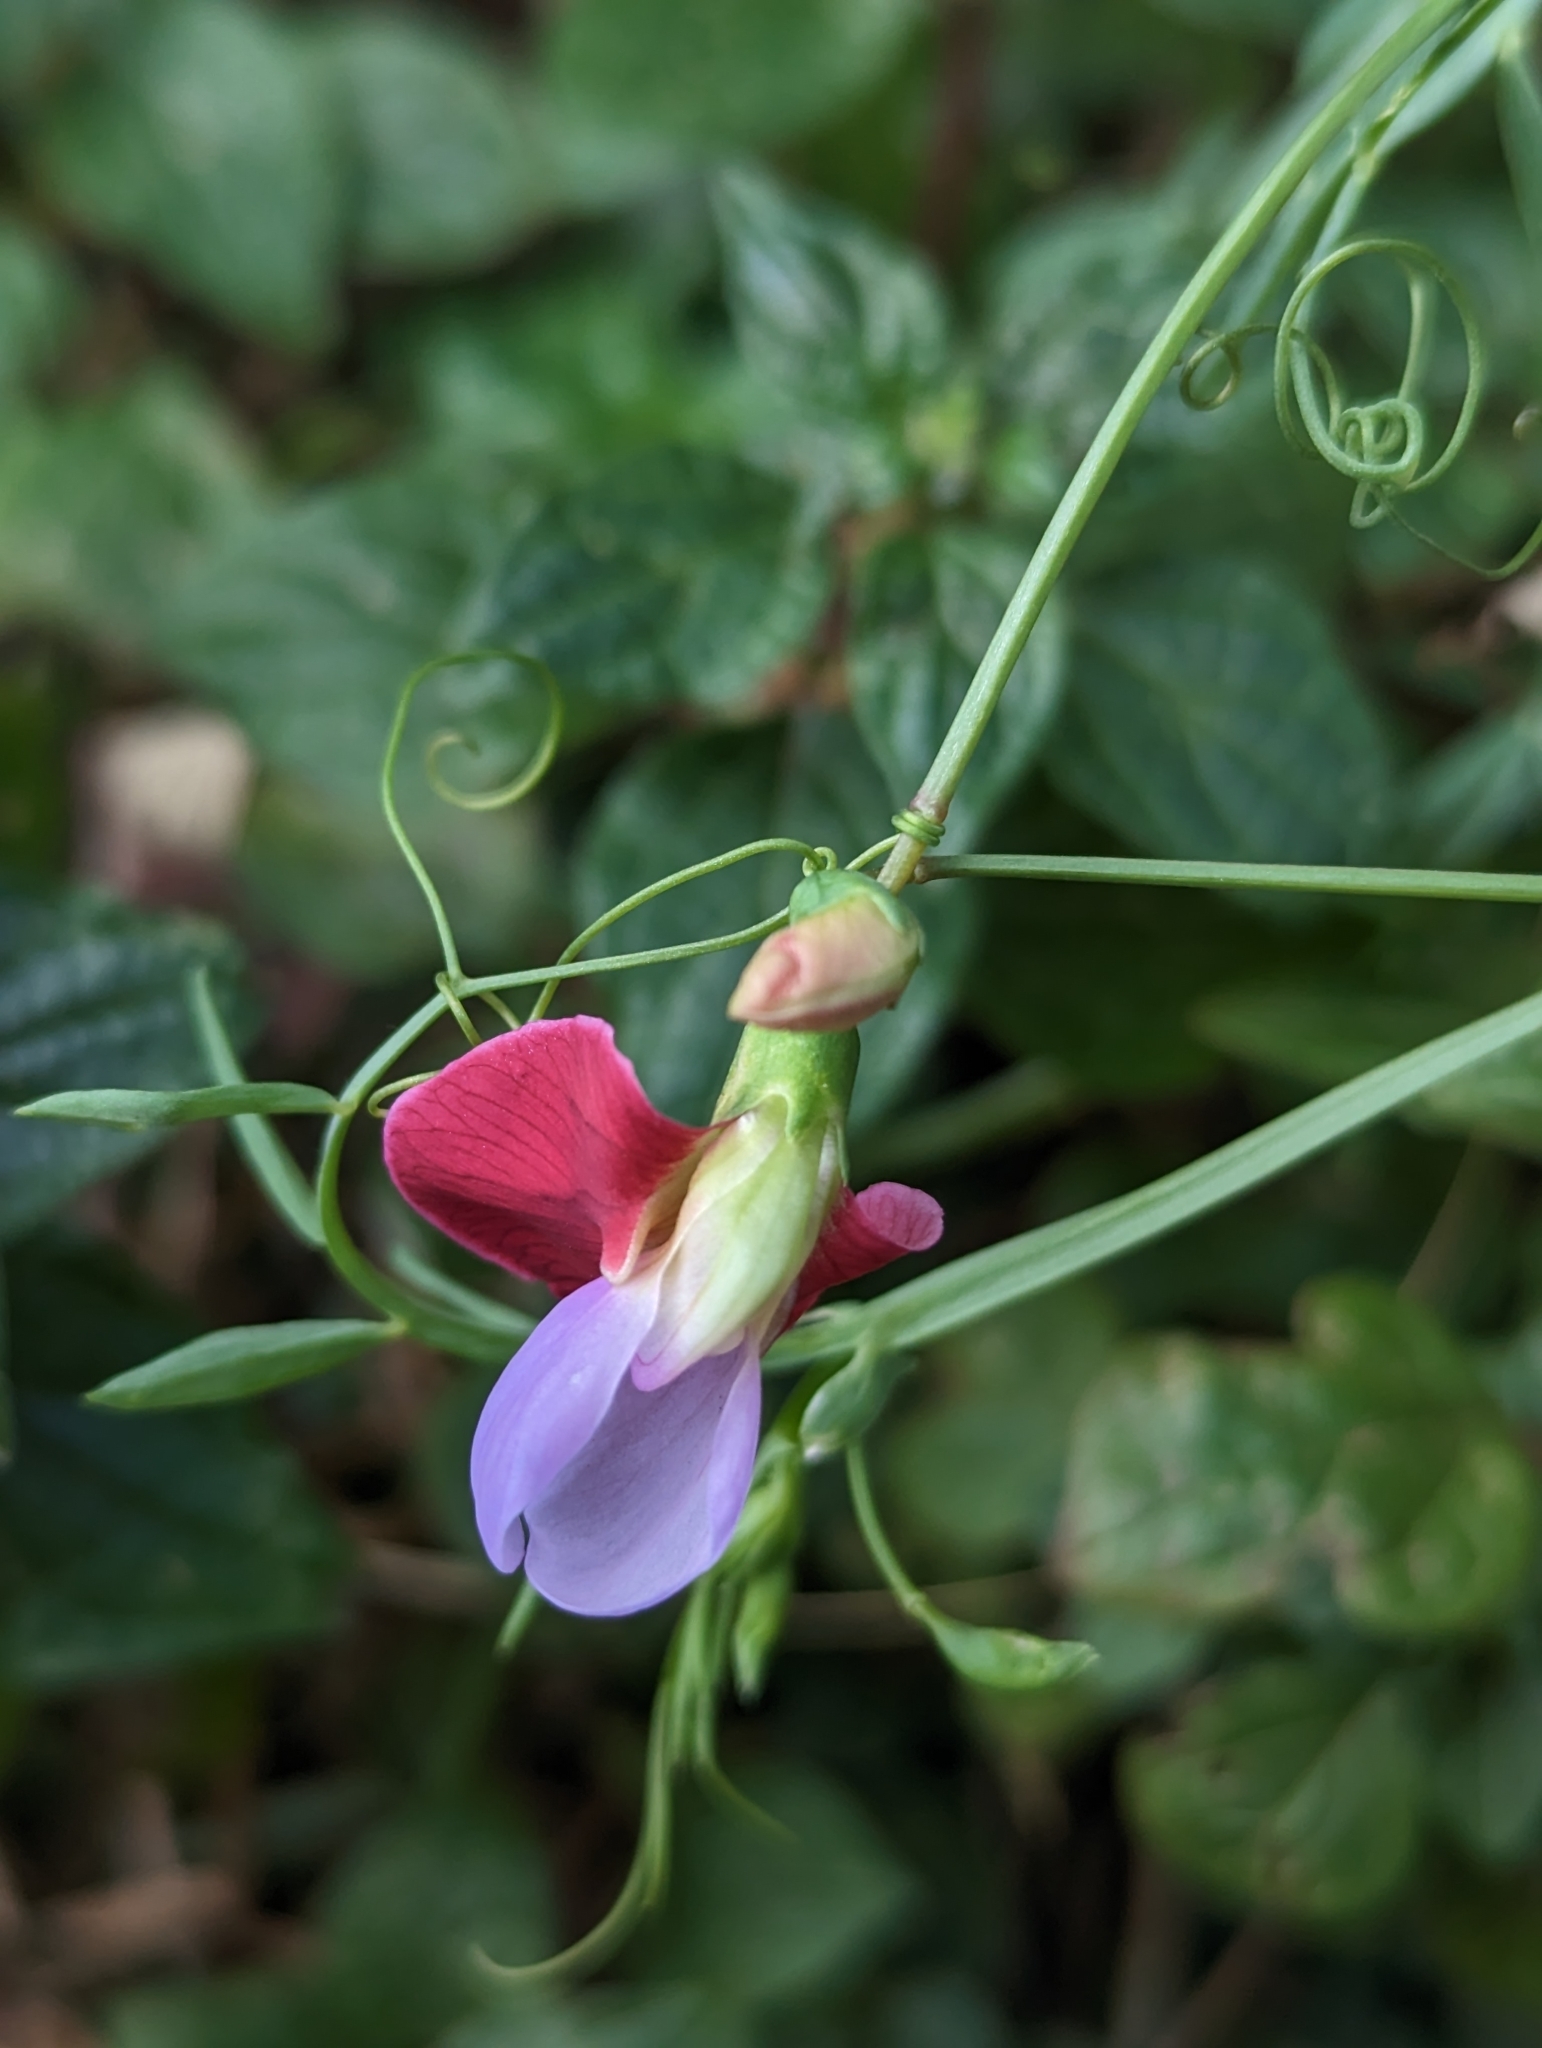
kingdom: Plantae
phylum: Tracheophyta
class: Magnoliopsida
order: Fabales
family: Fabaceae
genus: Lathyrus
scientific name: Lathyrus clymenum
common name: Spanish vetchling
